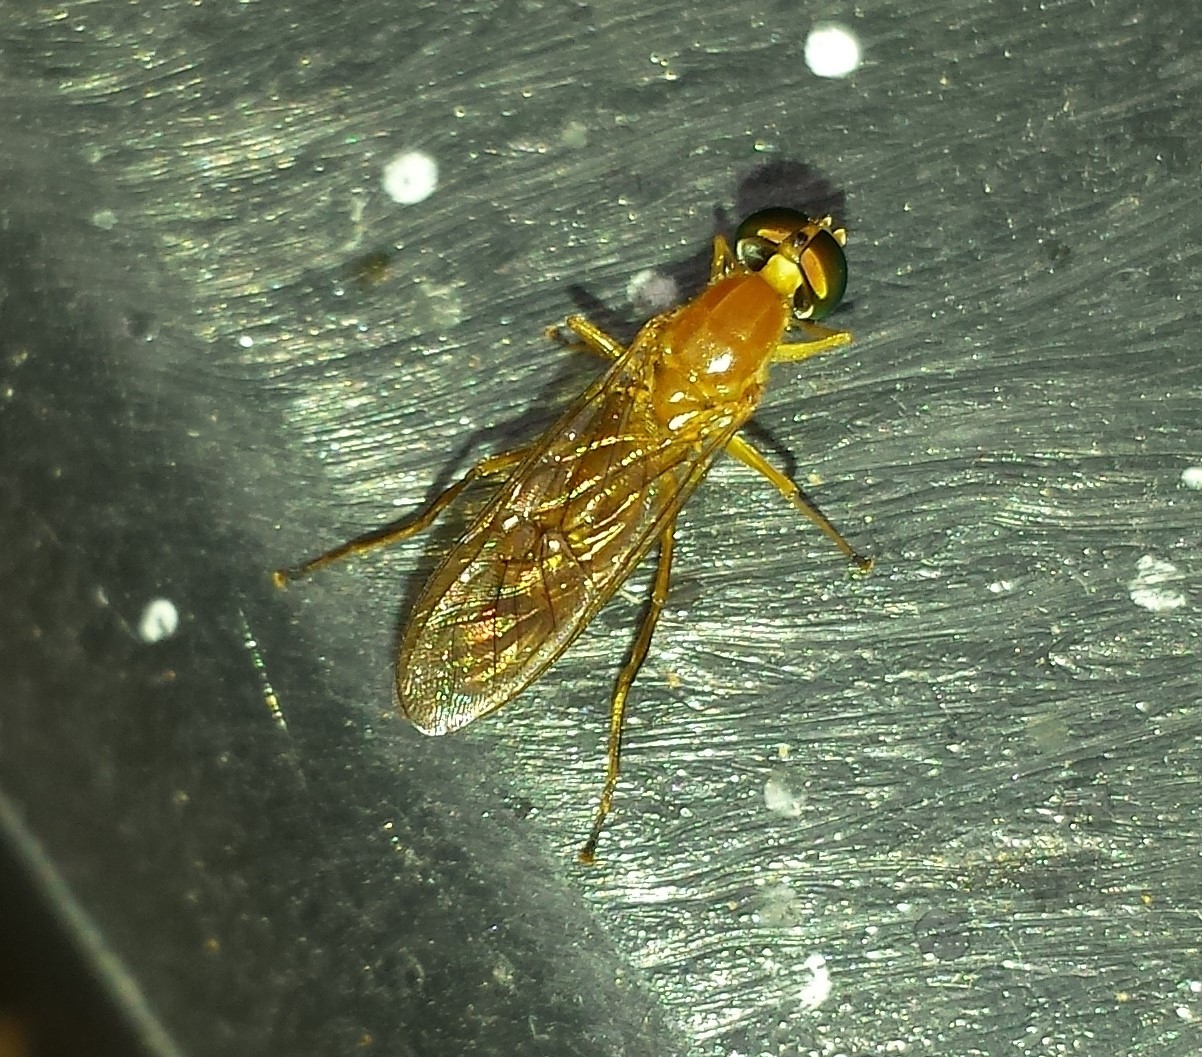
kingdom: Animalia
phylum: Arthropoda
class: Insecta
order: Diptera
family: Stratiomyidae
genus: Ptecticus
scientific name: Ptecticus trivittatus
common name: Compost fly
